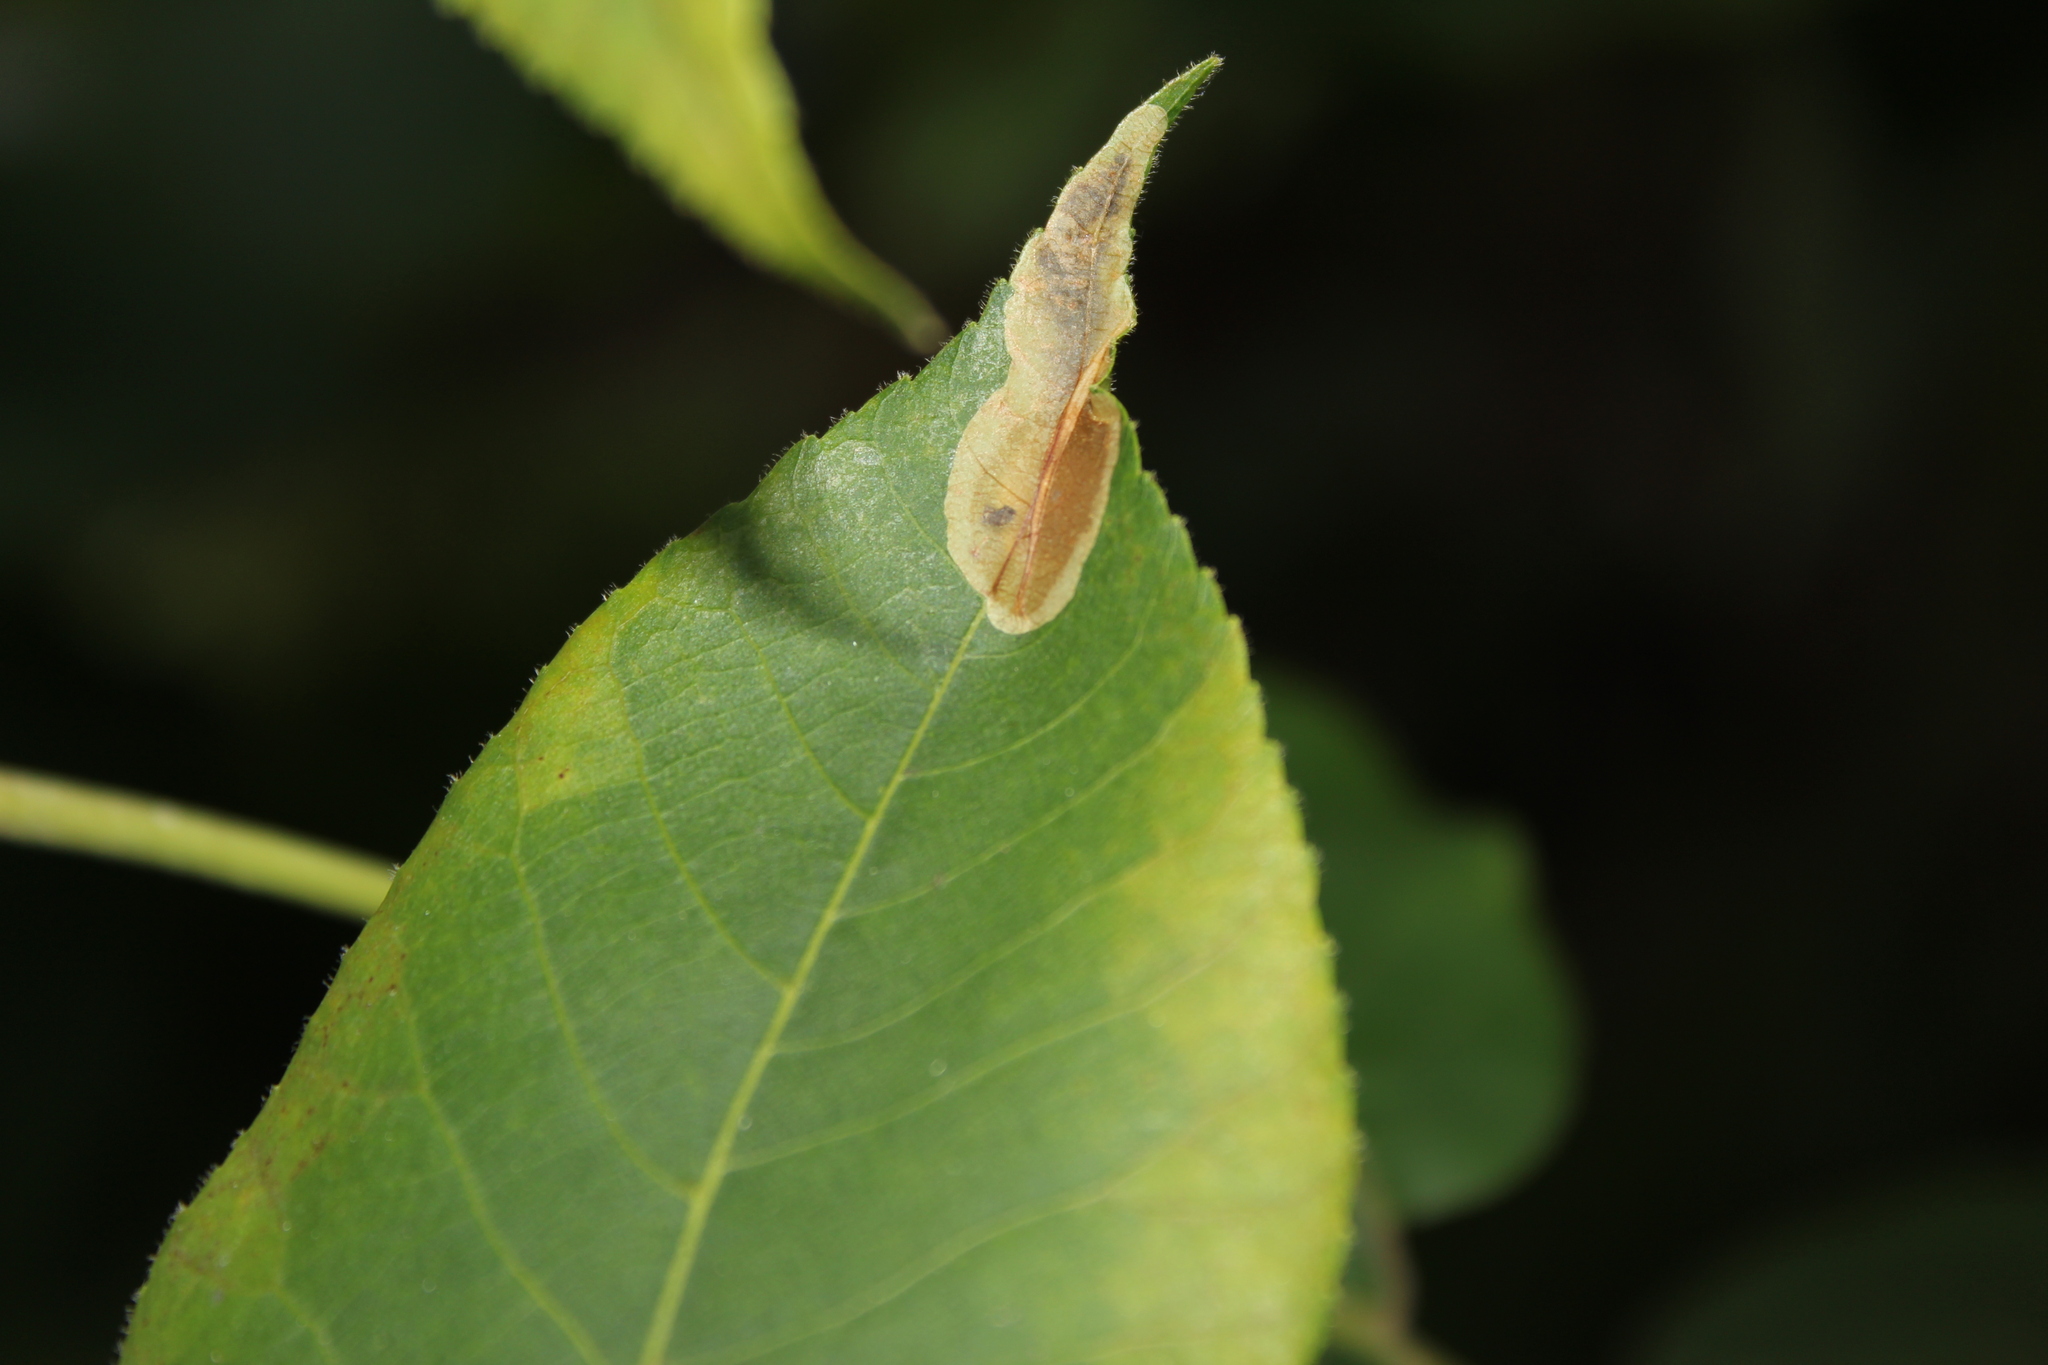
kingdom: Animalia
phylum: Arthropoda
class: Insecta
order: Lepidoptera
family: Gracillariidae
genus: Cameraria
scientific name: Cameraria caryaefoliella
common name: Pecan leafminer moth
